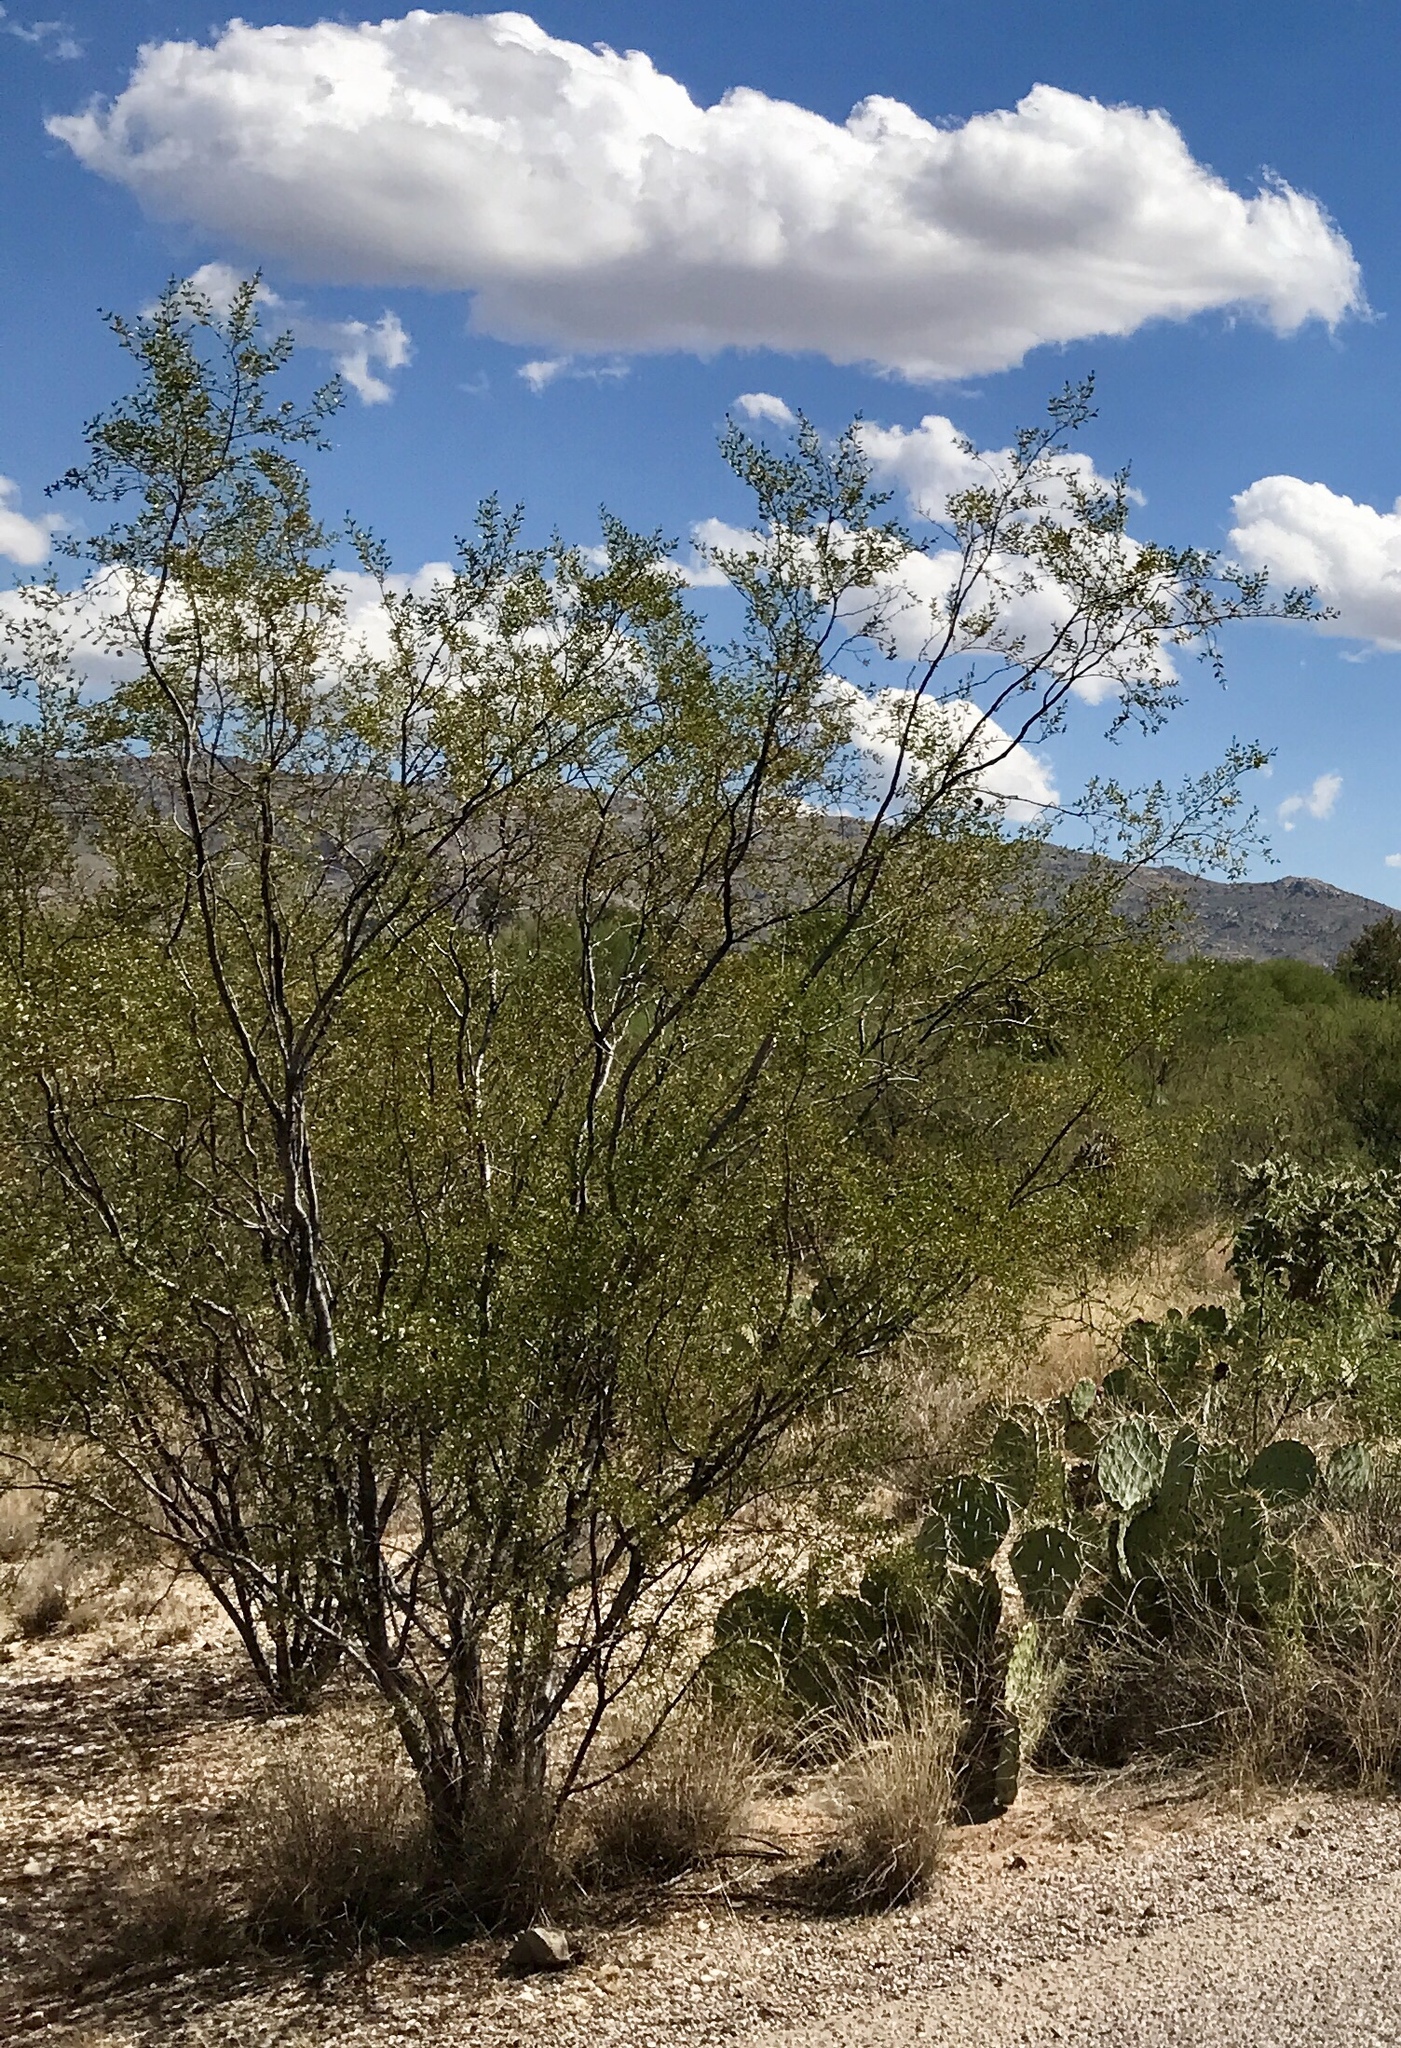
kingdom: Plantae
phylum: Tracheophyta
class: Magnoliopsida
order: Zygophyllales
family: Zygophyllaceae
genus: Larrea
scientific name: Larrea tridentata
